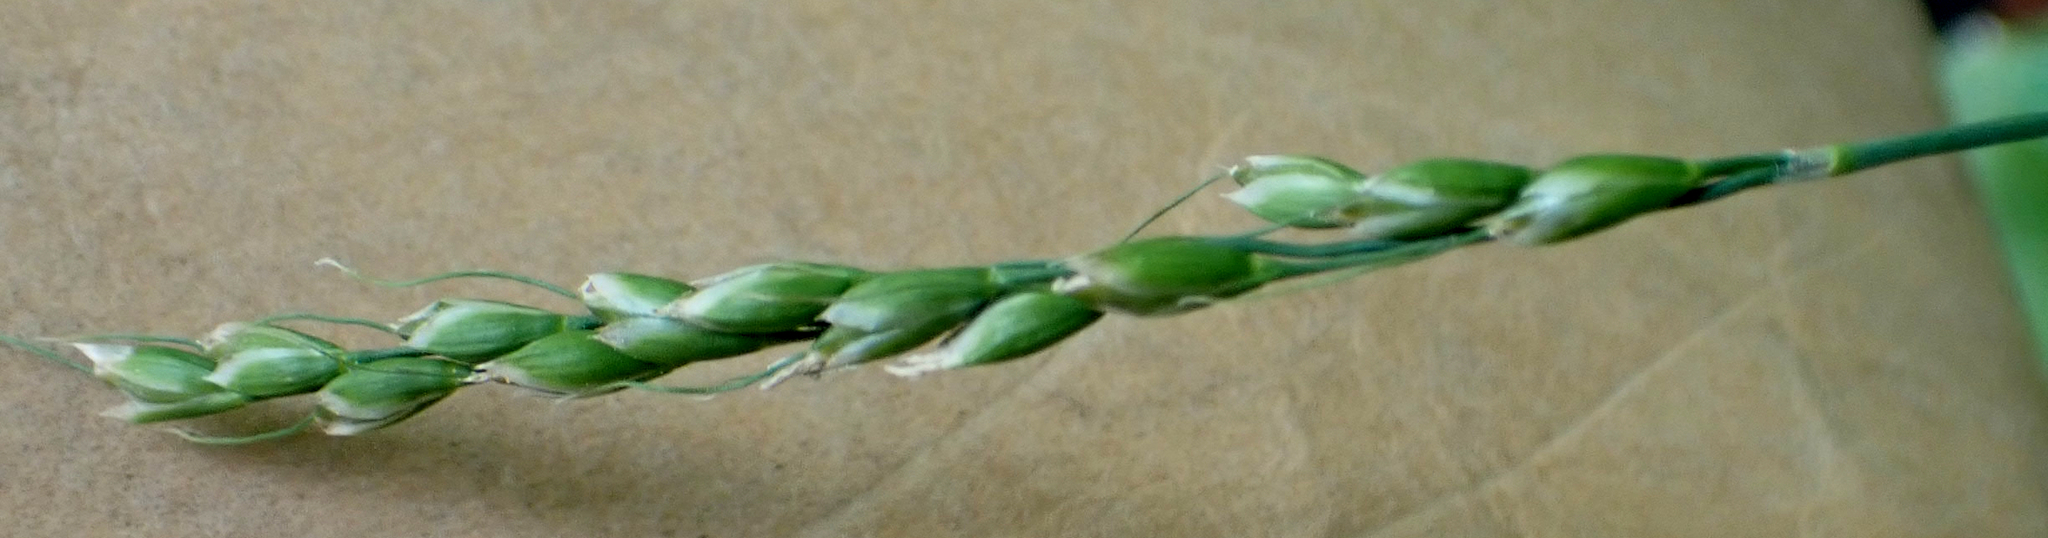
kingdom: Plantae
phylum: Tracheophyta
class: Liliopsida
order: Poales
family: Poaceae
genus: Oryzopsis
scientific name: Oryzopsis asperifolia
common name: Rough-leaved mountain rice
